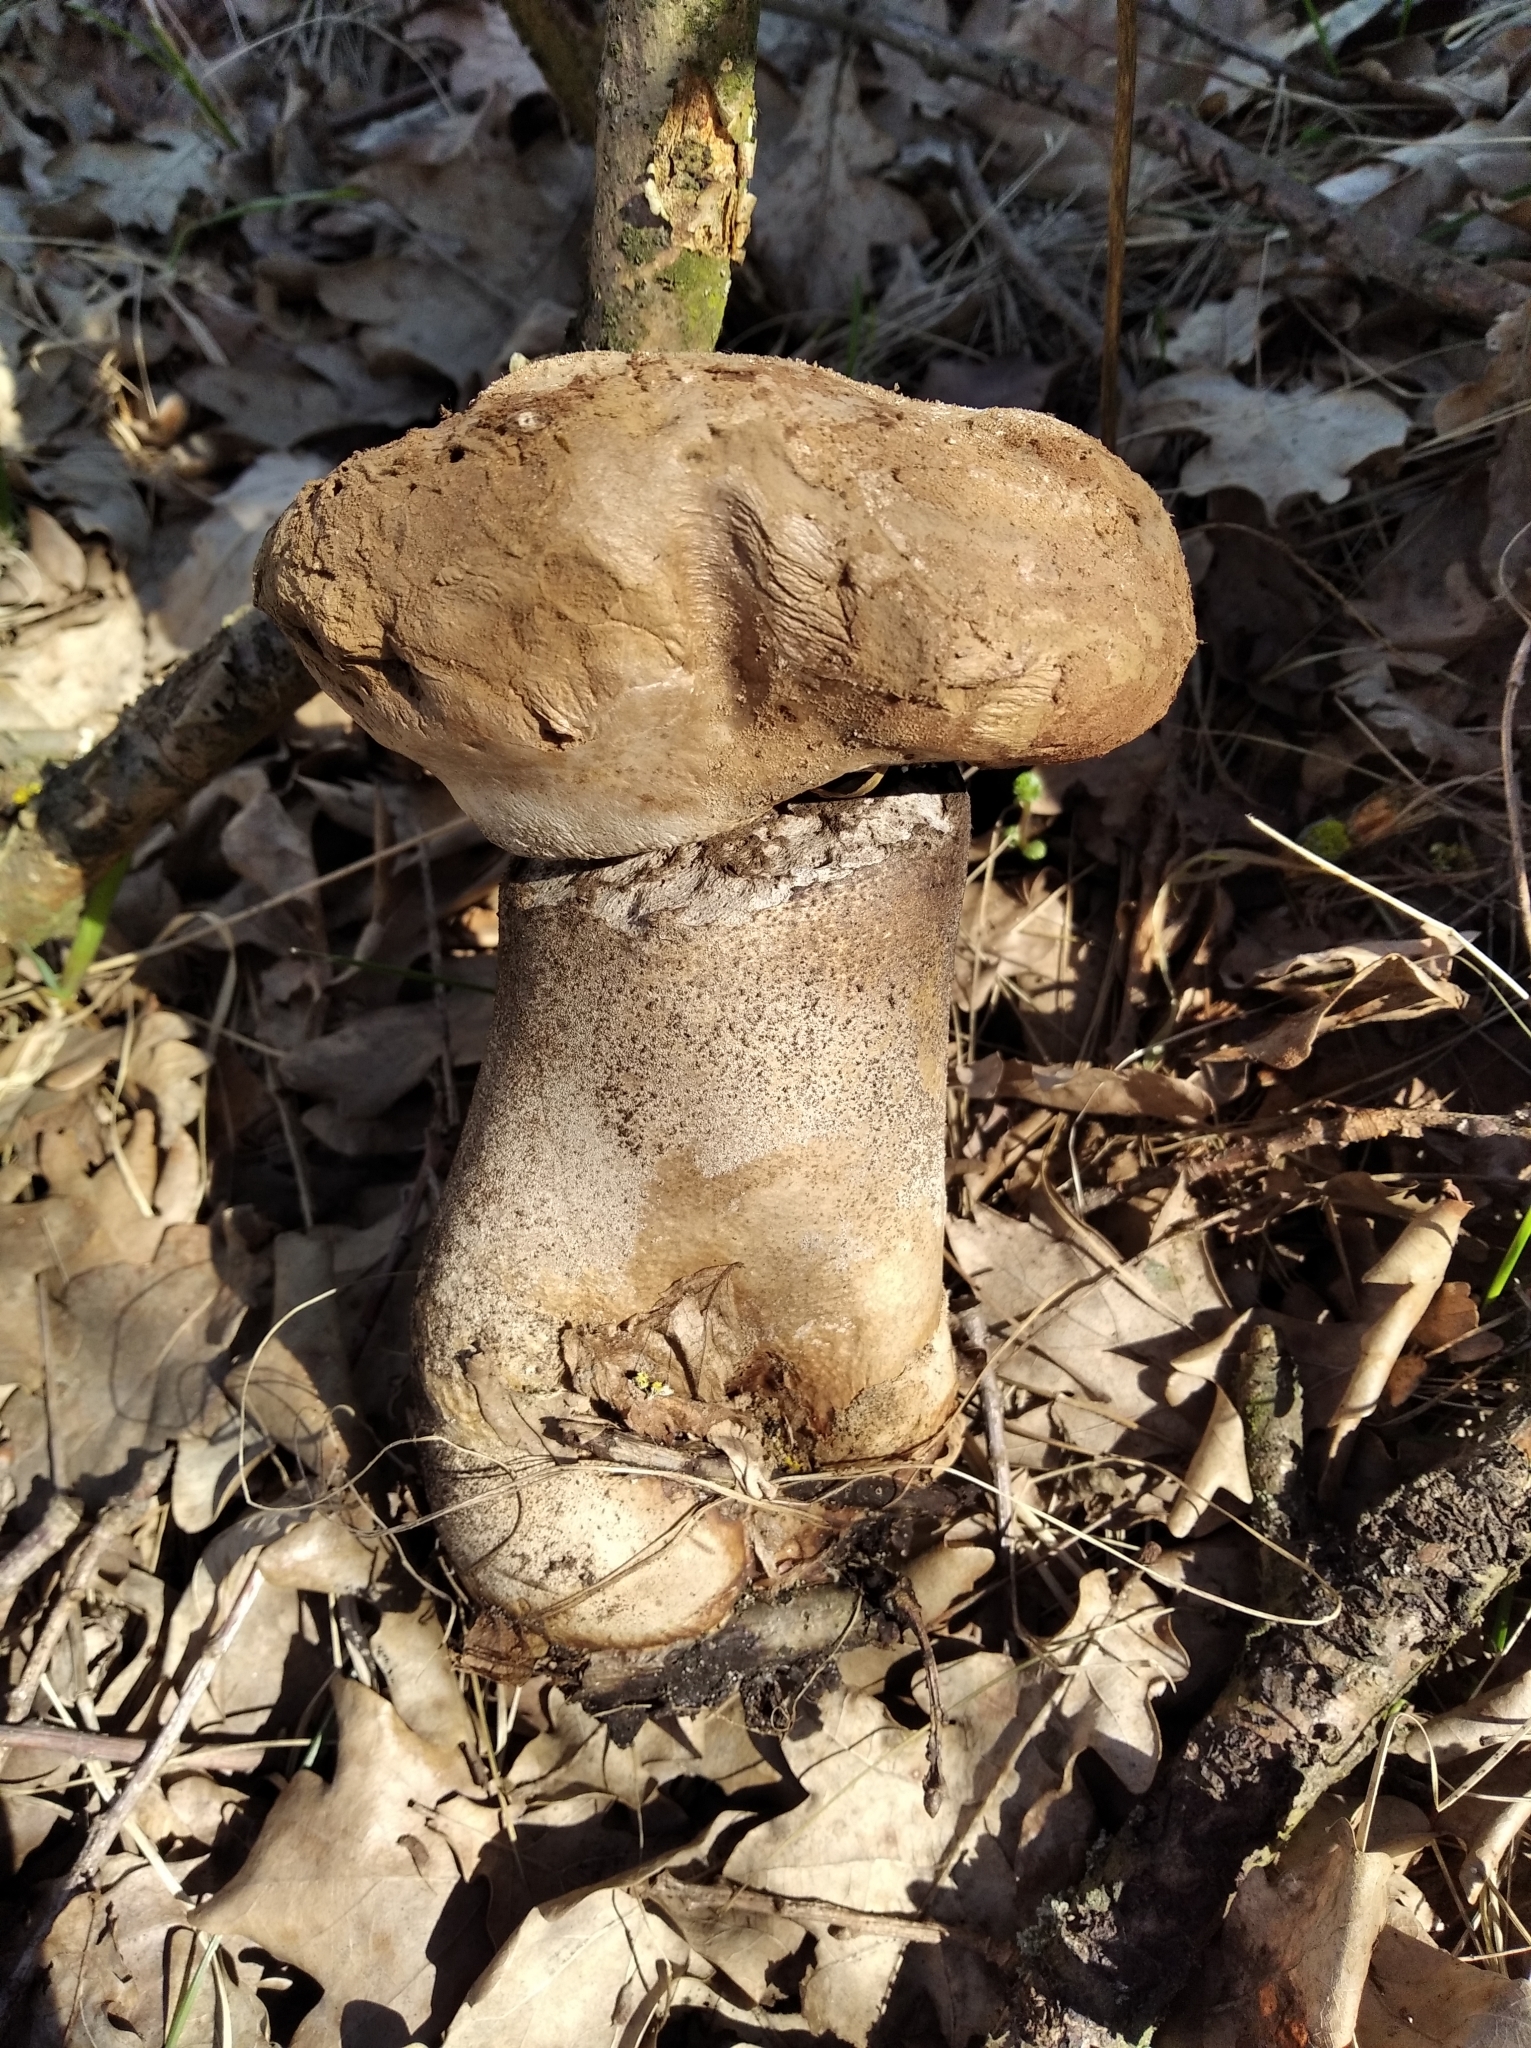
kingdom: Fungi
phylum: Basidiomycota
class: Agaricomycetes
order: Agaricales
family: Lycoperdaceae
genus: Lycoperdon
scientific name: Lycoperdon excipuliforme
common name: Pestle puffball
